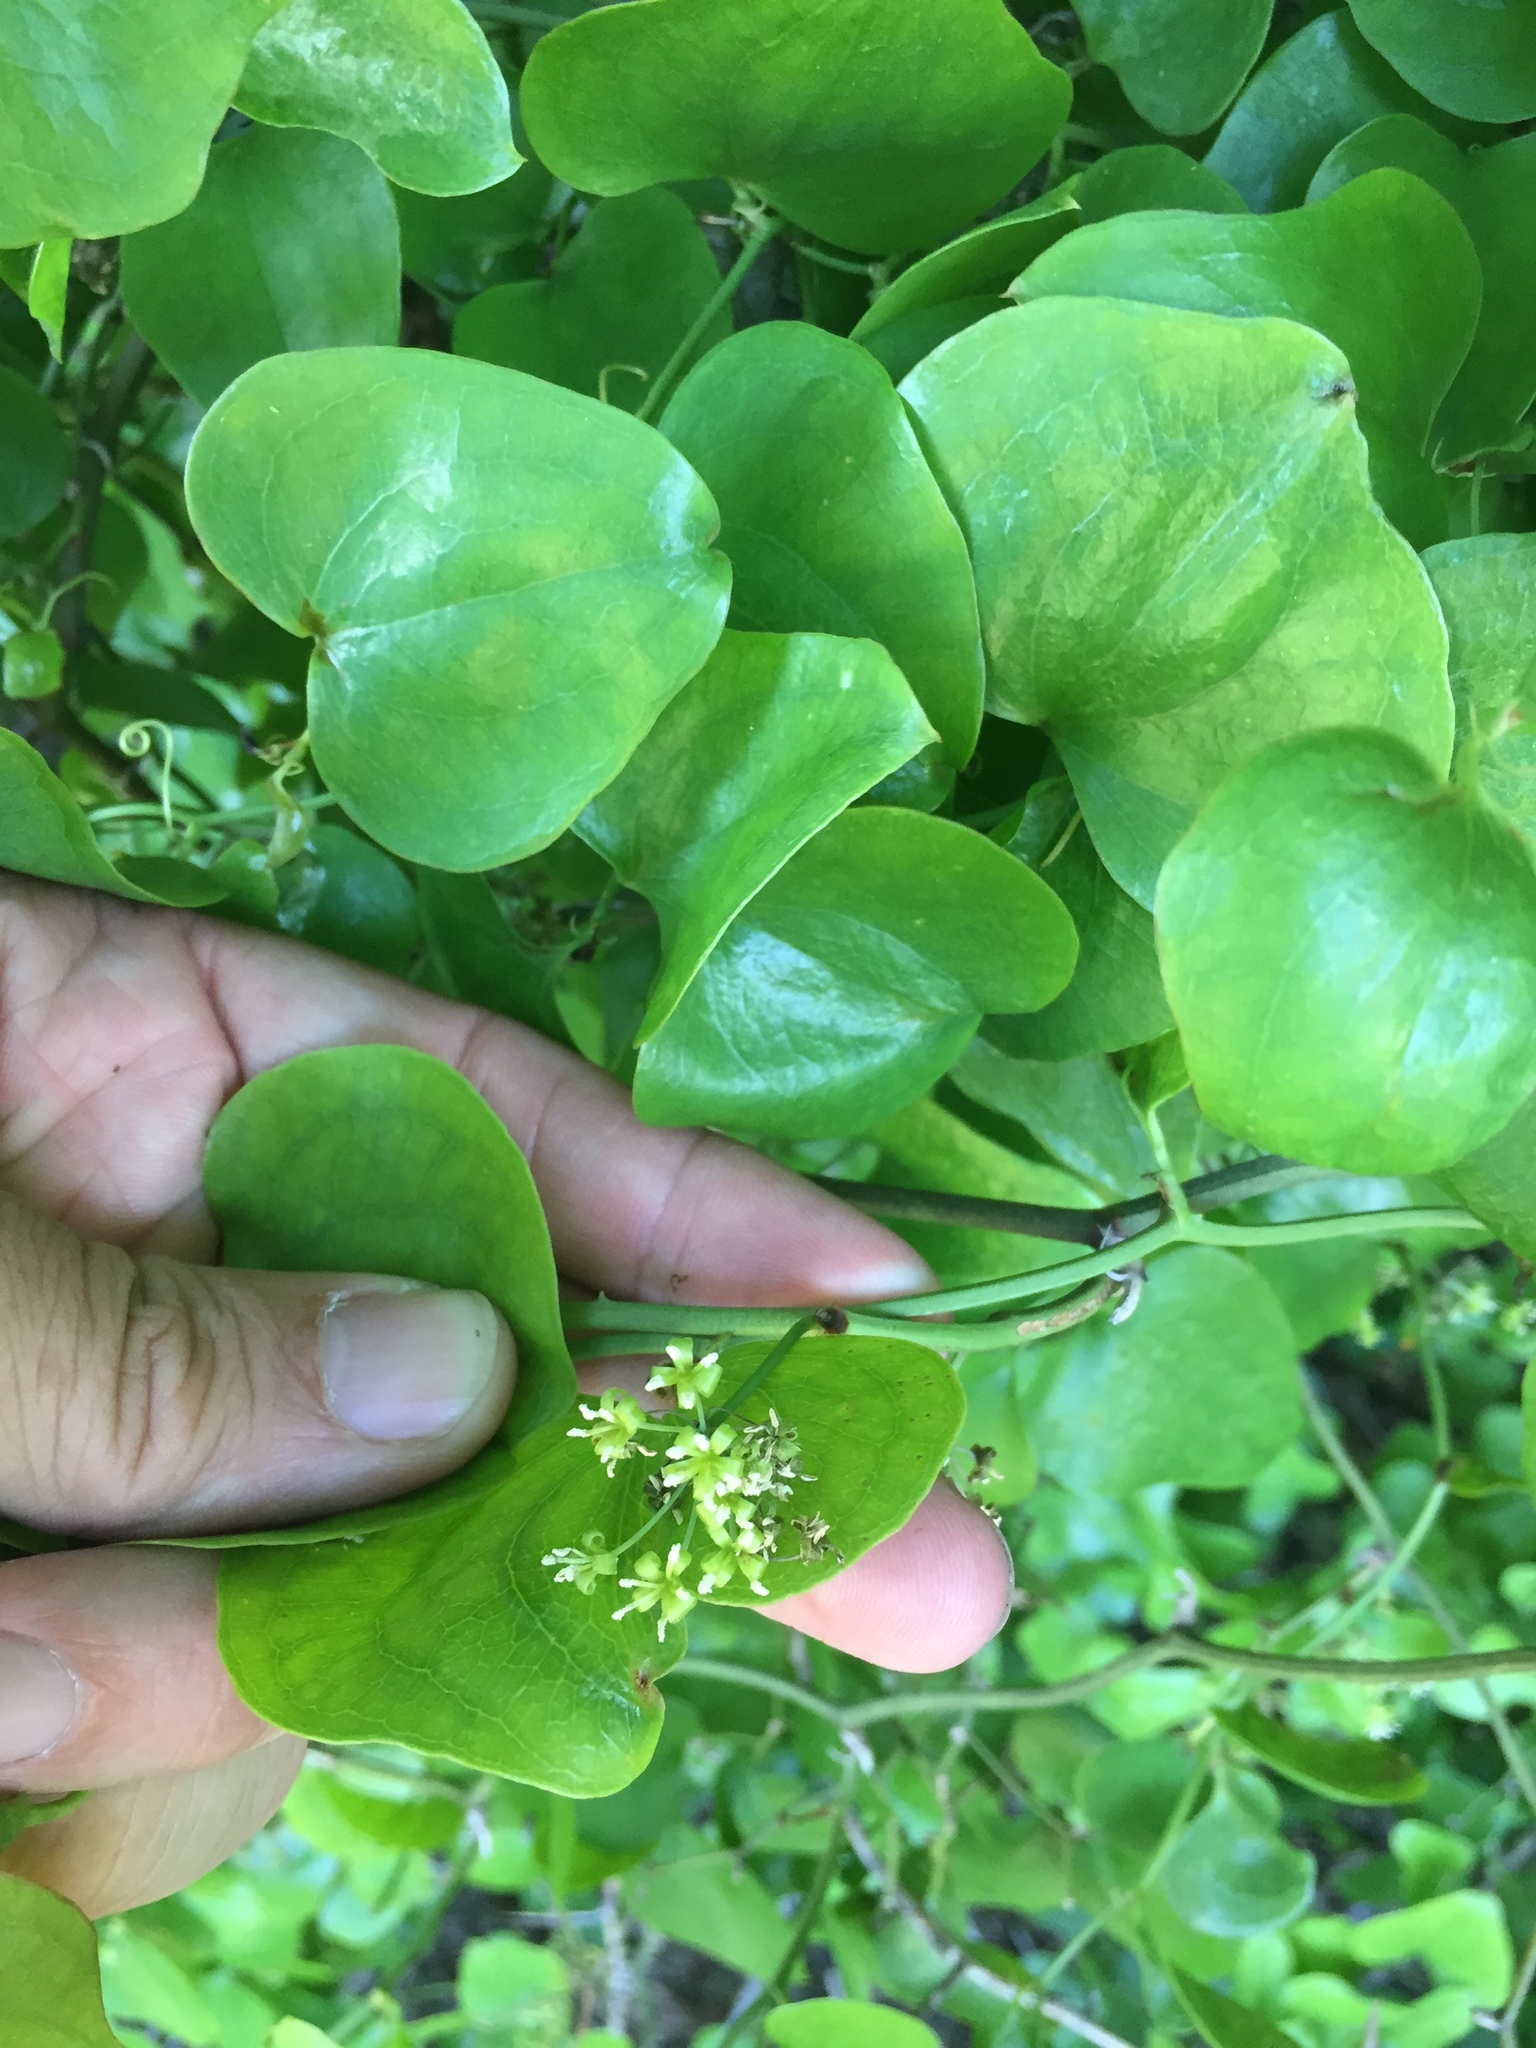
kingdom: Plantae
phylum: Tracheophyta
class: Liliopsida
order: Liliales
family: Smilacaceae
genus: Smilax
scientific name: Smilax bona-nox
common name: Catbrier
